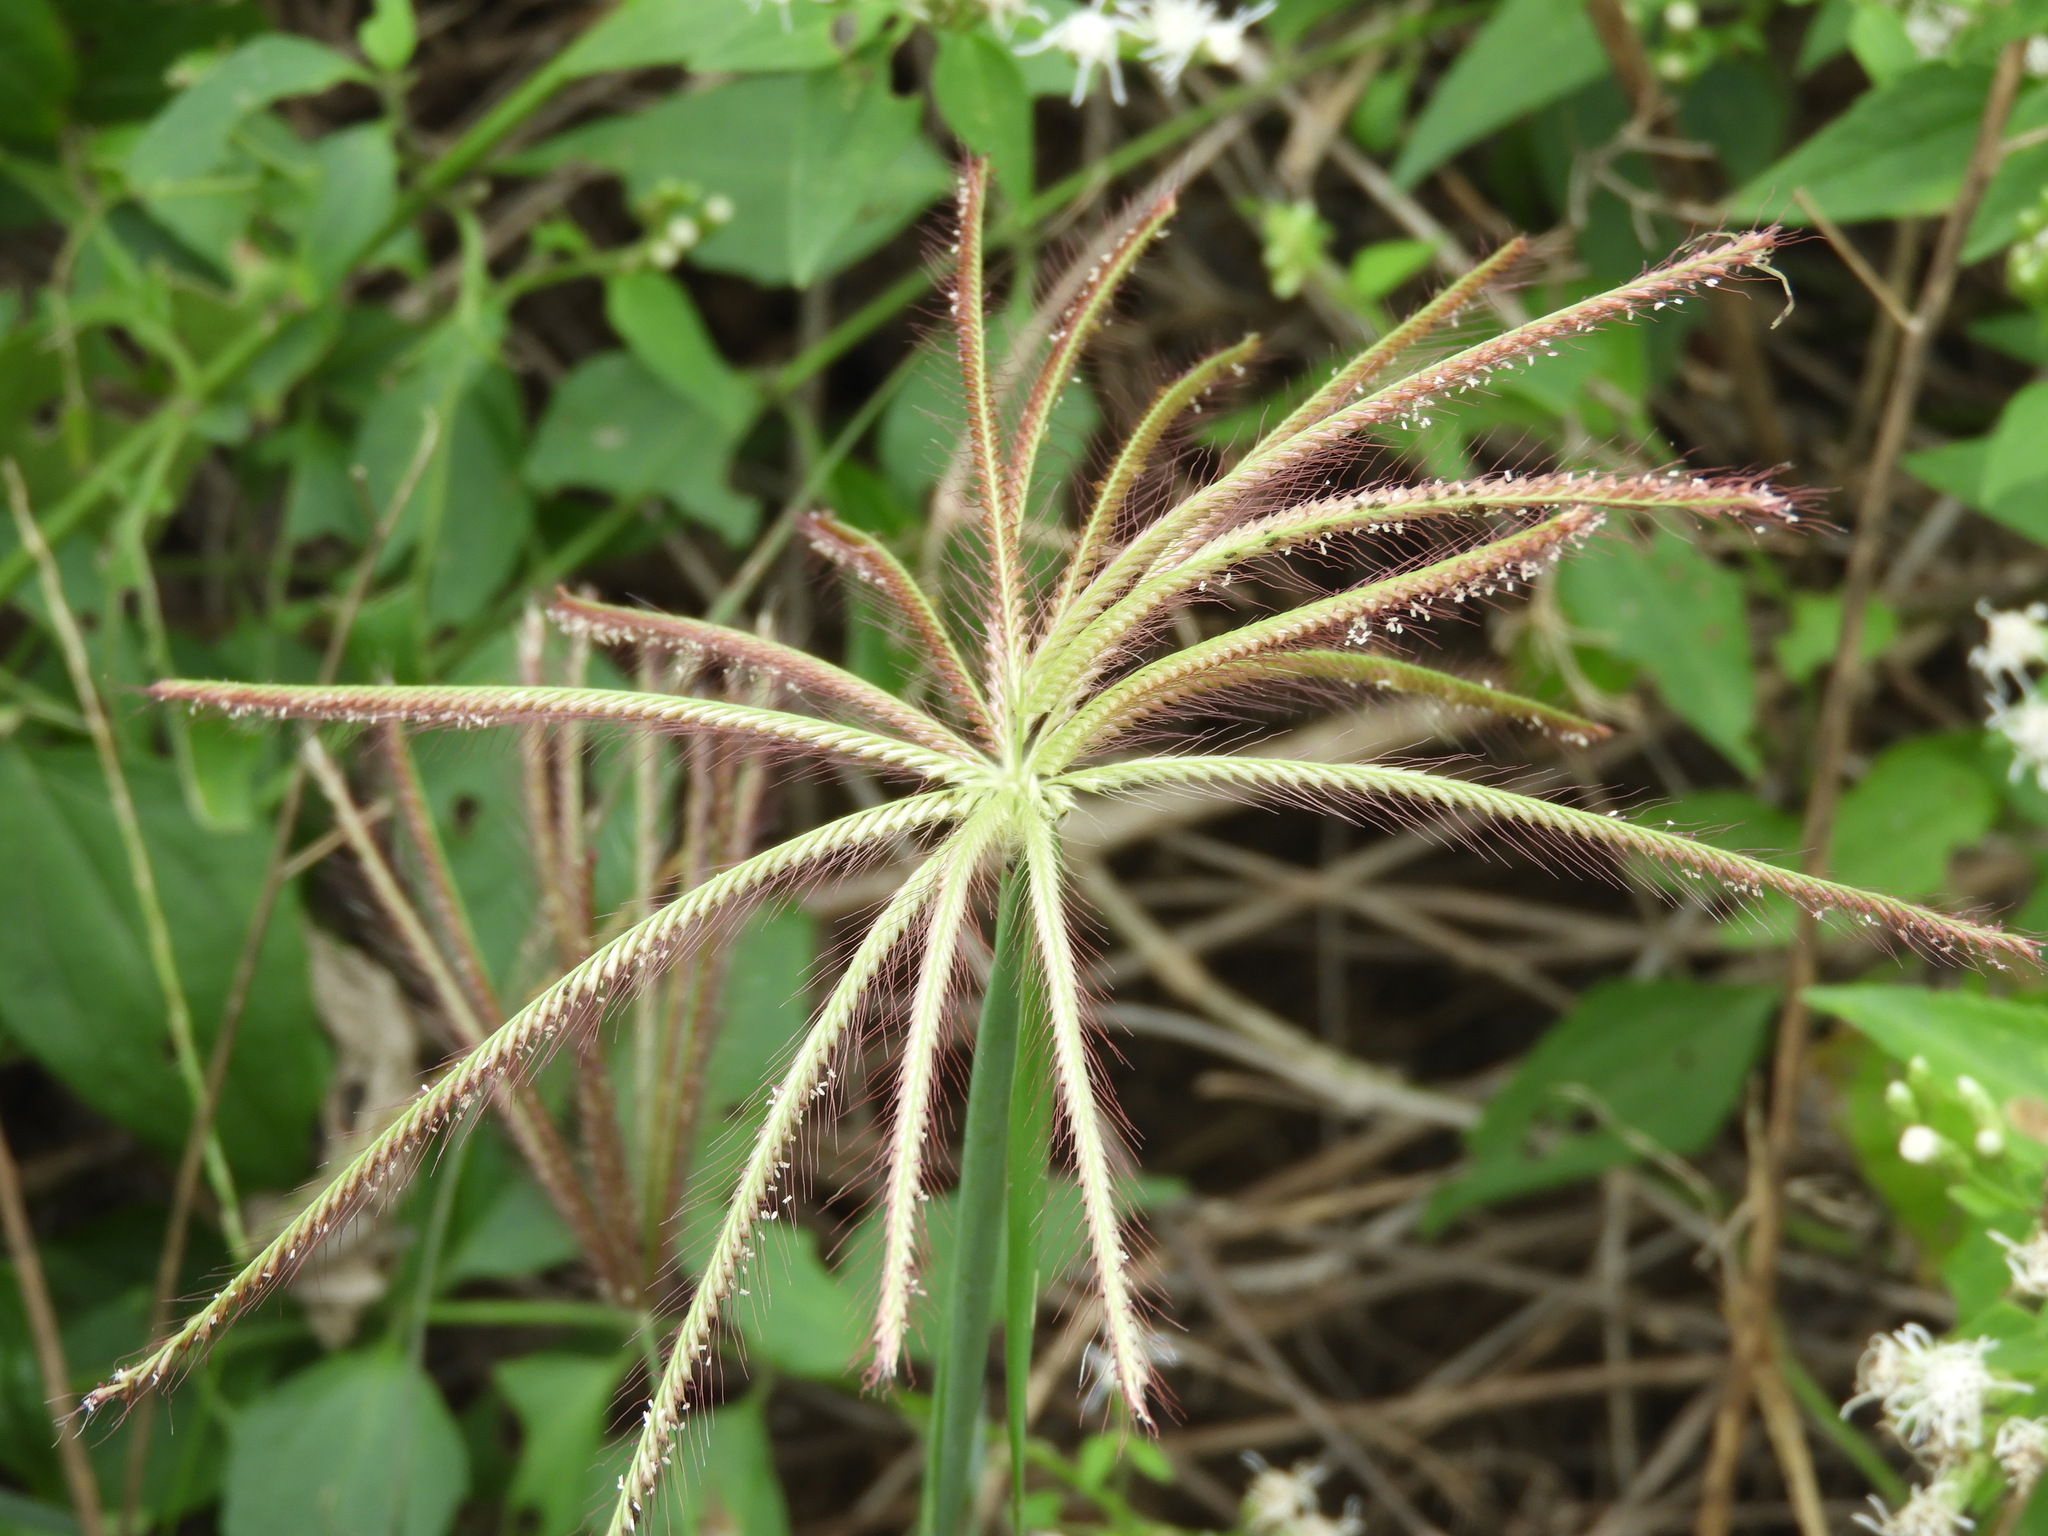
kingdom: Plantae
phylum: Tracheophyta
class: Liliopsida
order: Poales
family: Poaceae
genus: Chloris
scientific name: Chloris barbata
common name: Swollen fingergrass
